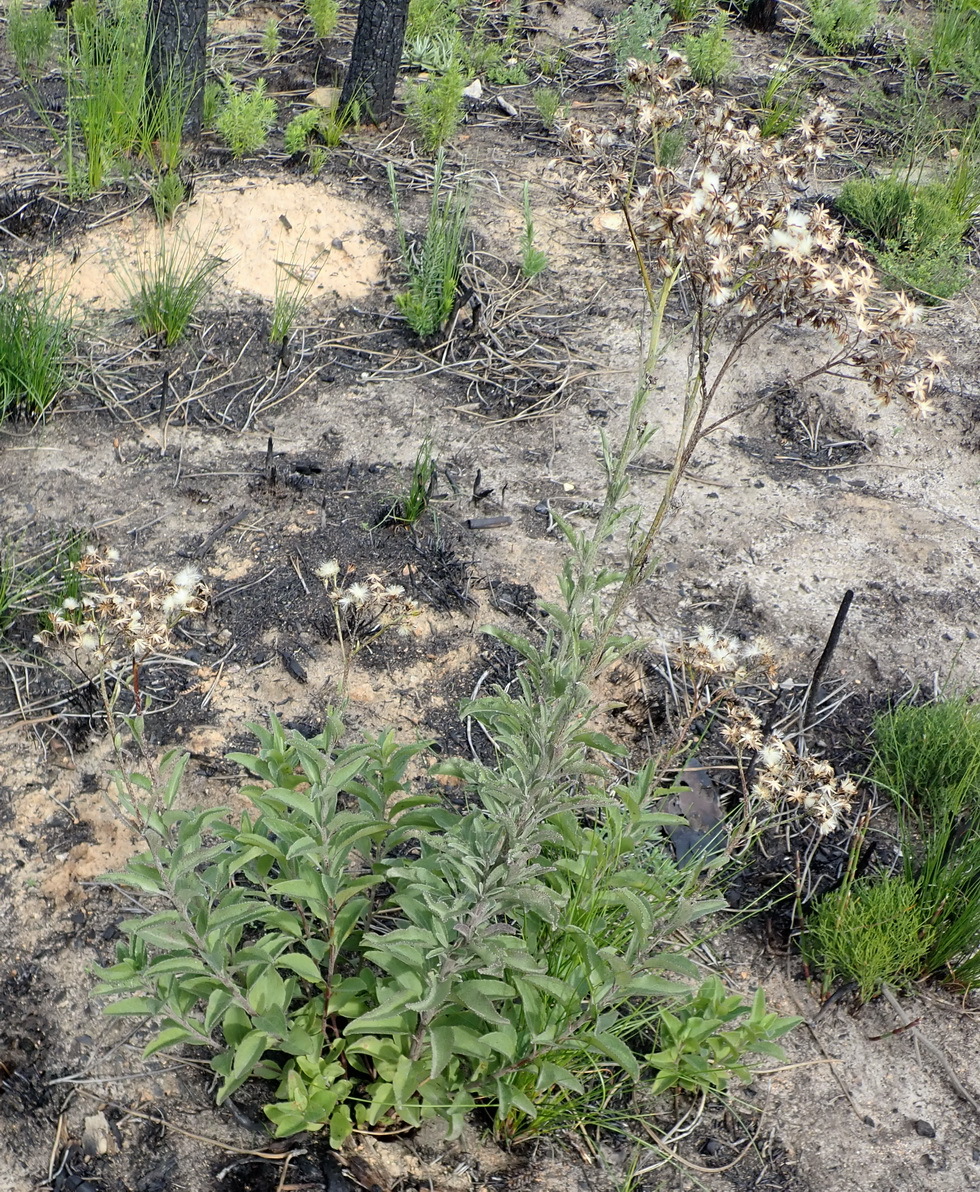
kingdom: Plantae
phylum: Tracheophyta
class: Magnoliopsida
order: Asterales
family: Asteraceae
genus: Senecio
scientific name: Senecio crenatus
